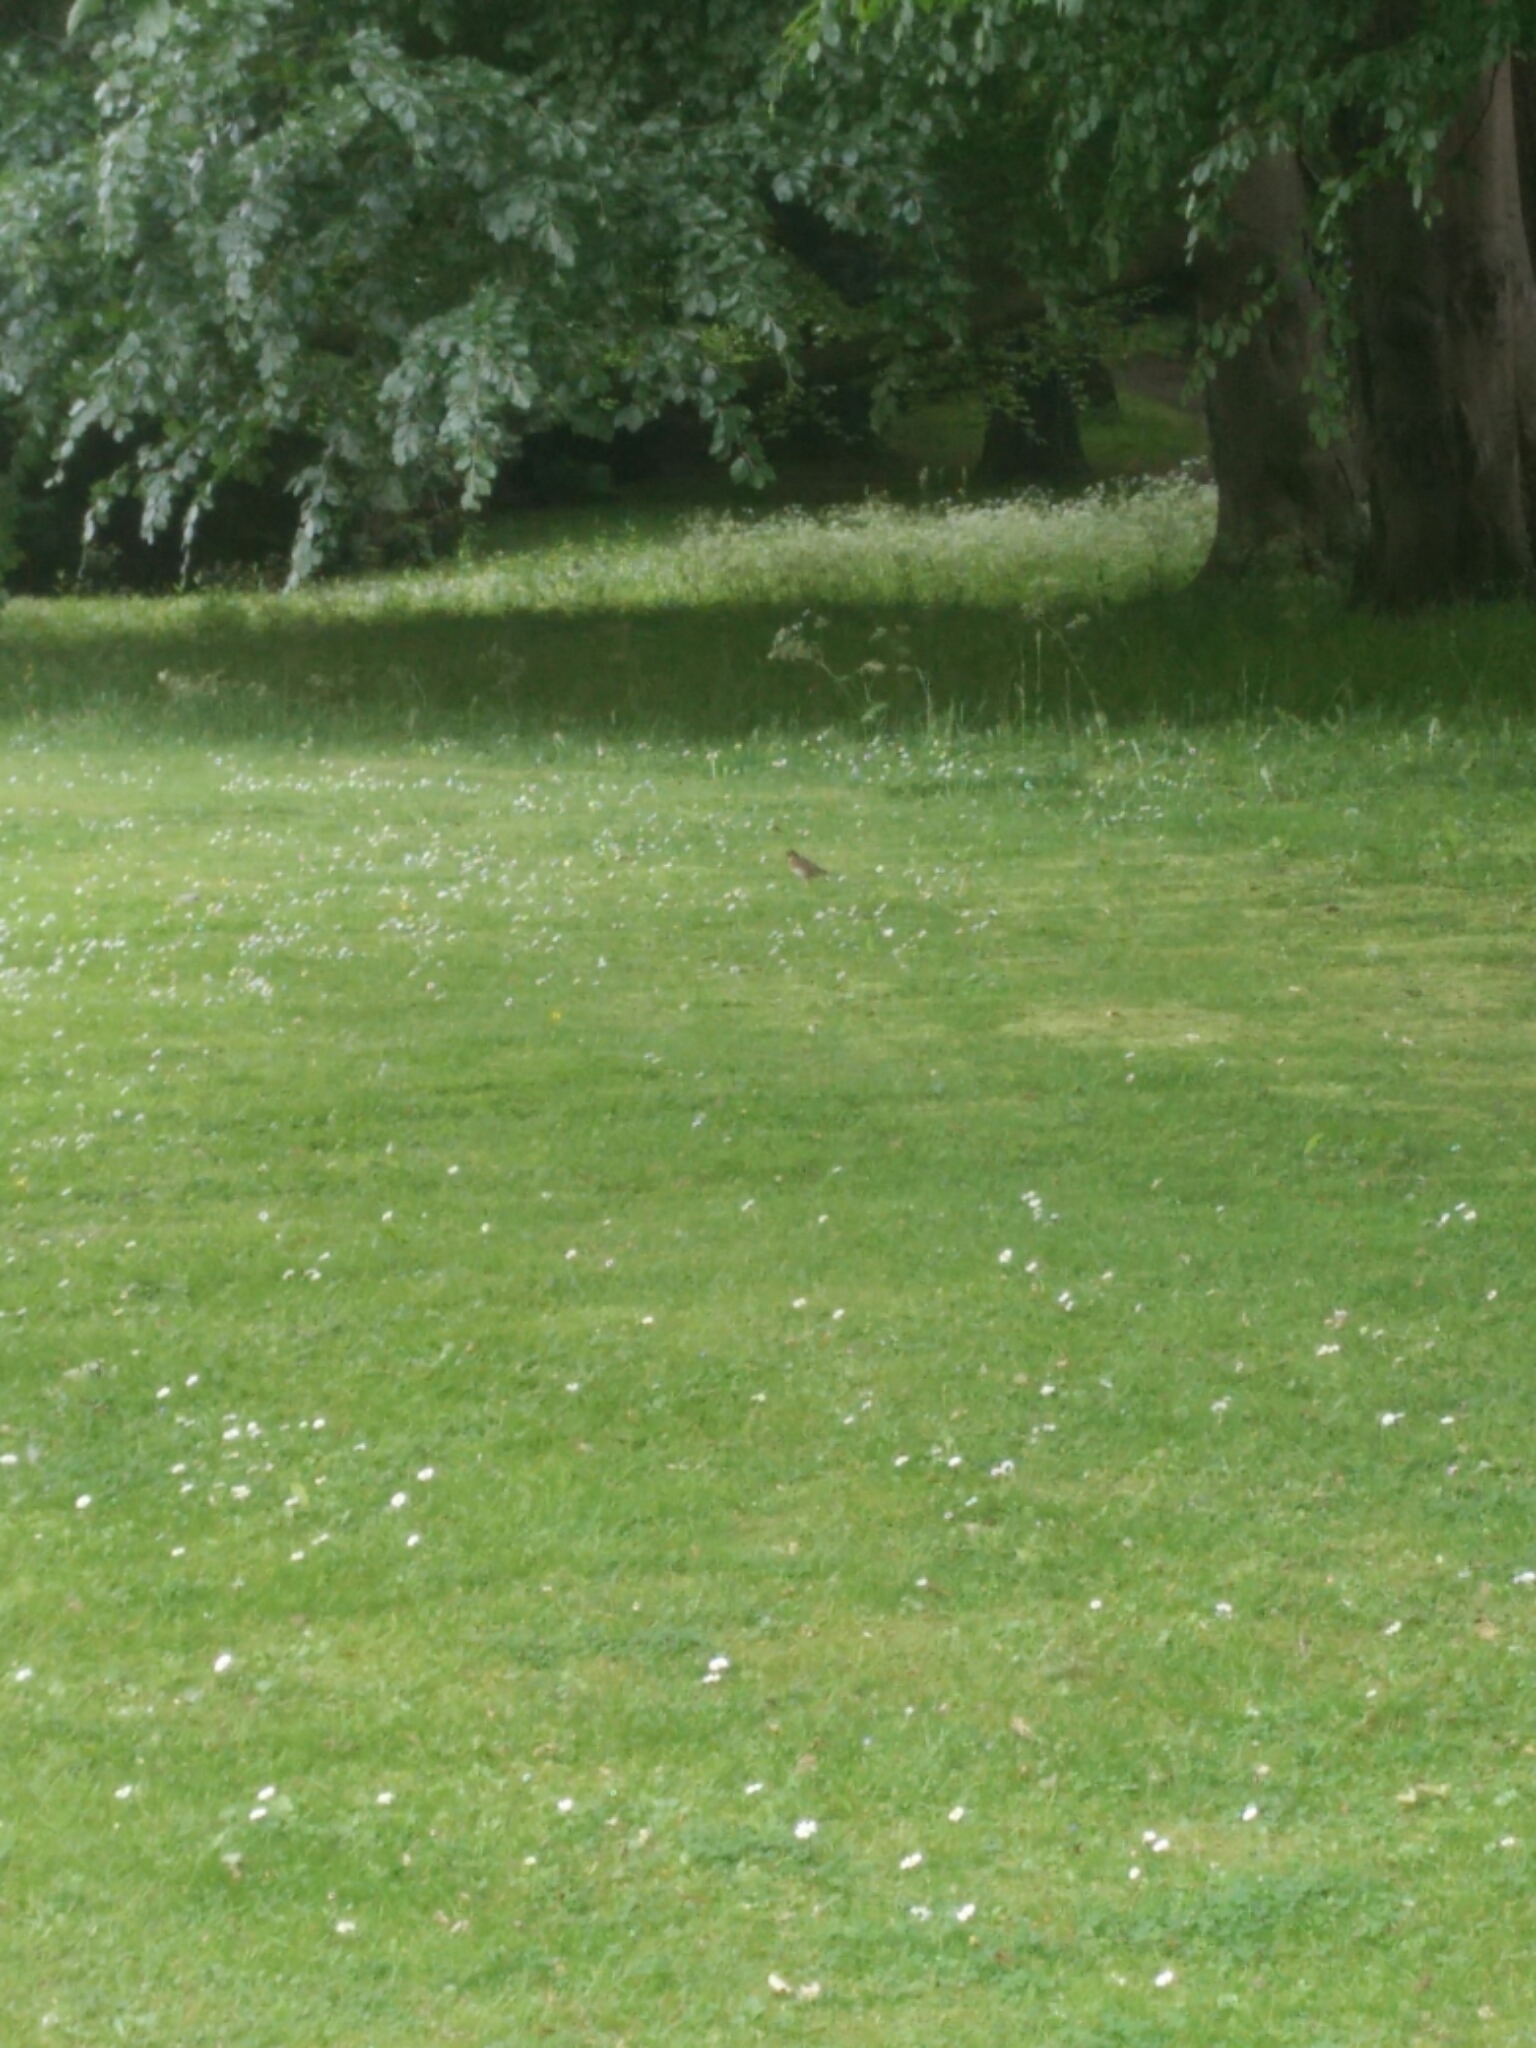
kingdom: Animalia
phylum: Chordata
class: Aves
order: Passeriformes
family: Turdidae
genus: Turdus
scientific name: Turdus philomelos
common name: Song thrush
